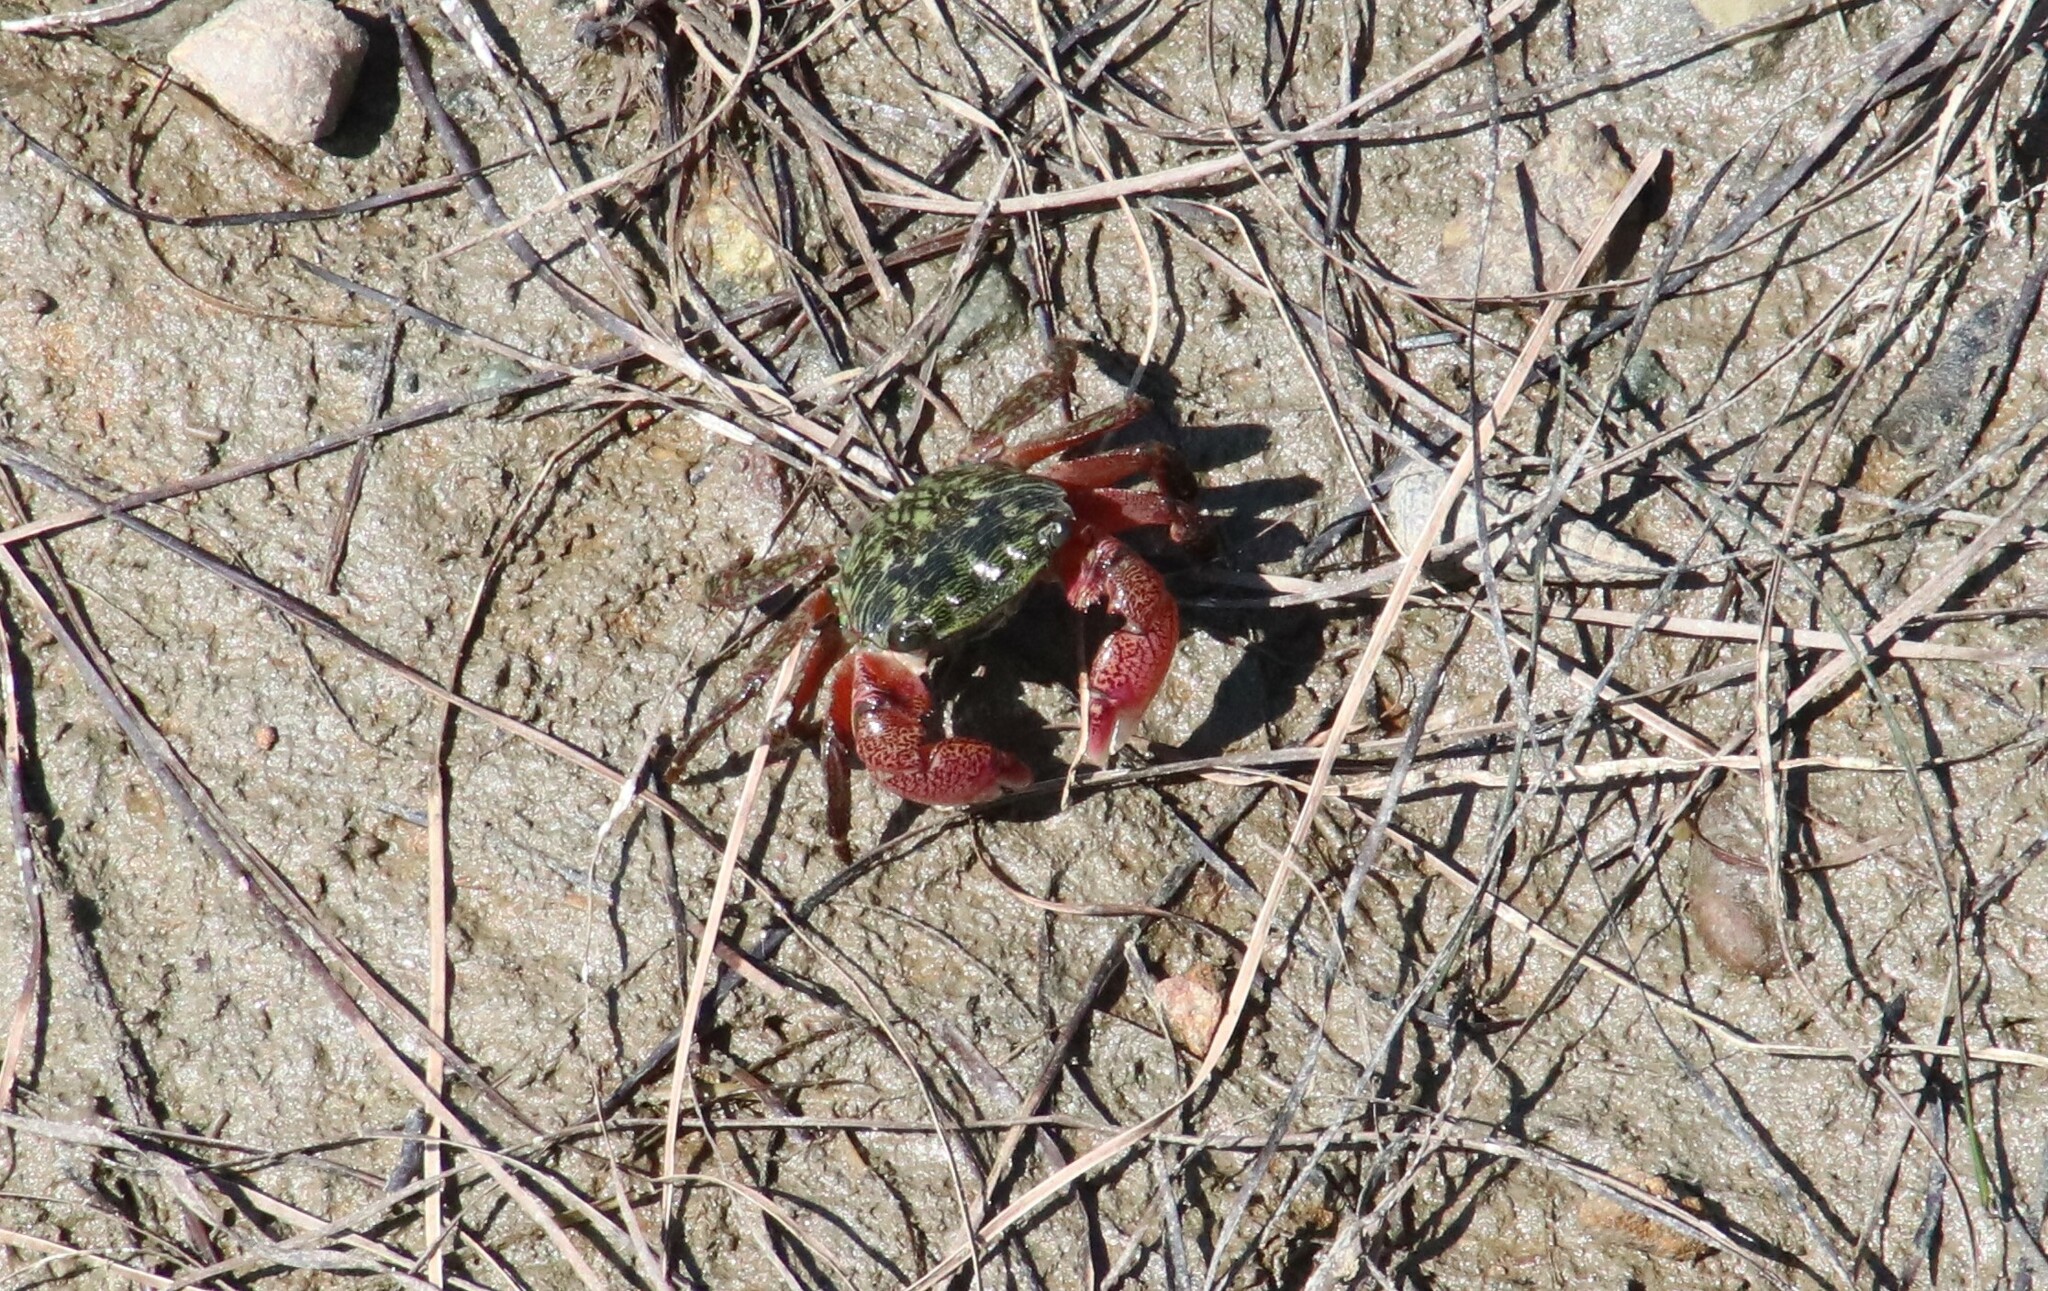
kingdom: Animalia
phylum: Arthropoda
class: Malacostraca
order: Decapoda
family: Grapsidae
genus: Pachygrapsus
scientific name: Pachygrapsus crassipes
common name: Striped shore crab
